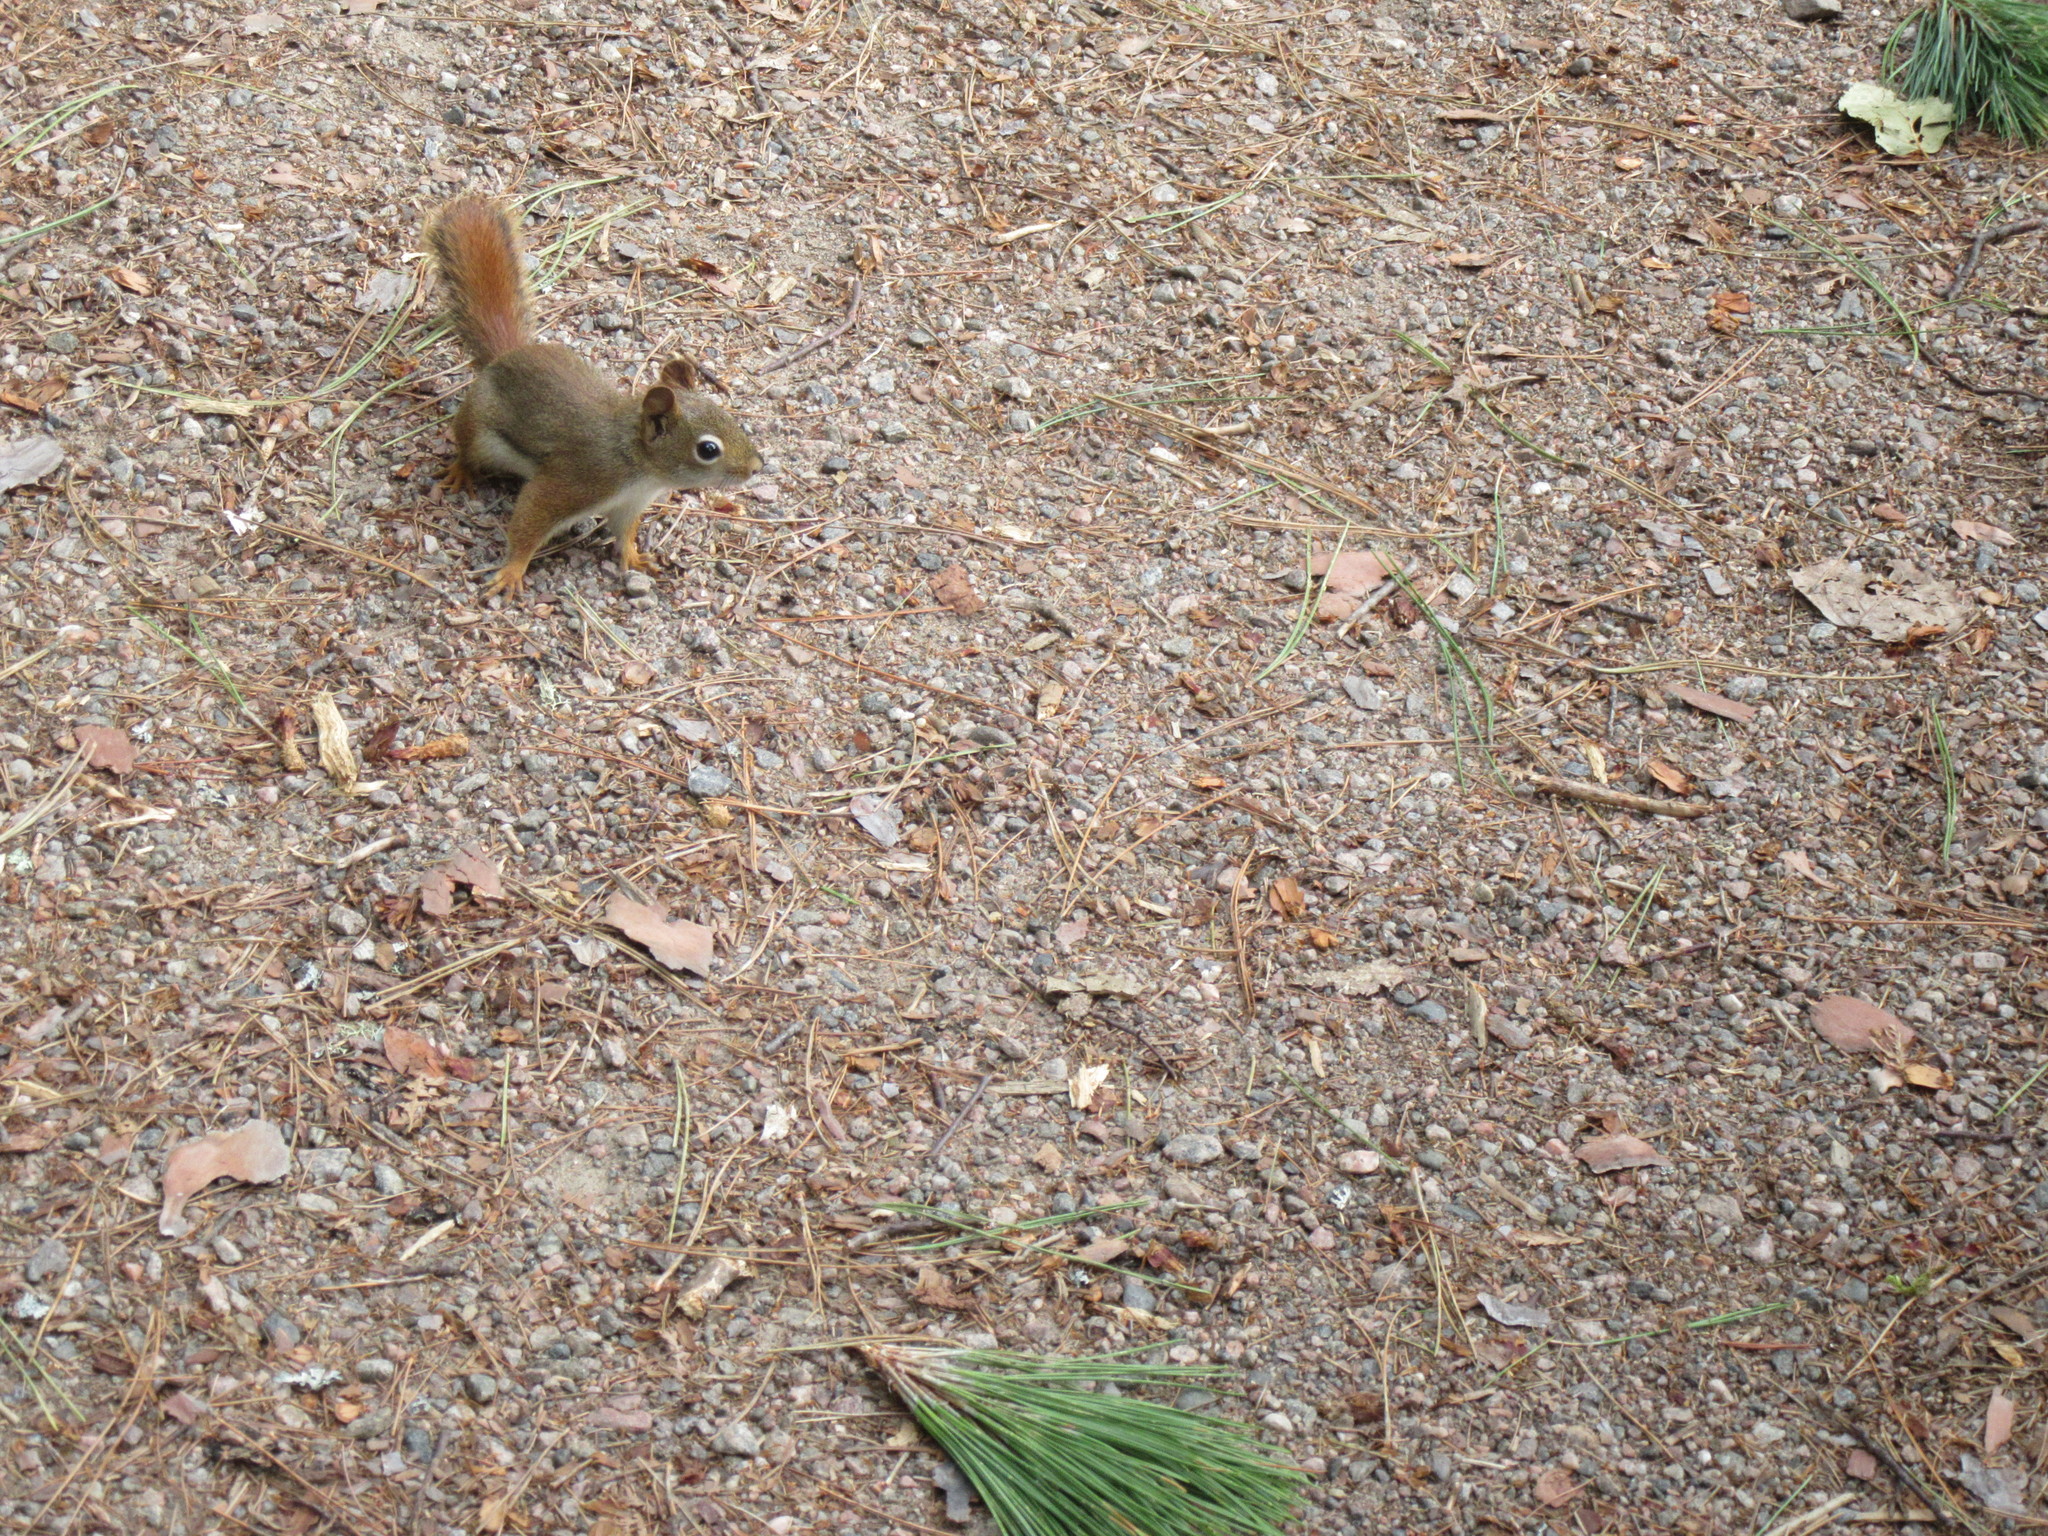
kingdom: Animalia
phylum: Chordata
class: Mammalia
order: Rodentia
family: Sciuridae
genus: Tamiasciurus
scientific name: Tamiasciurus hudsonicus
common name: Red squirrel
